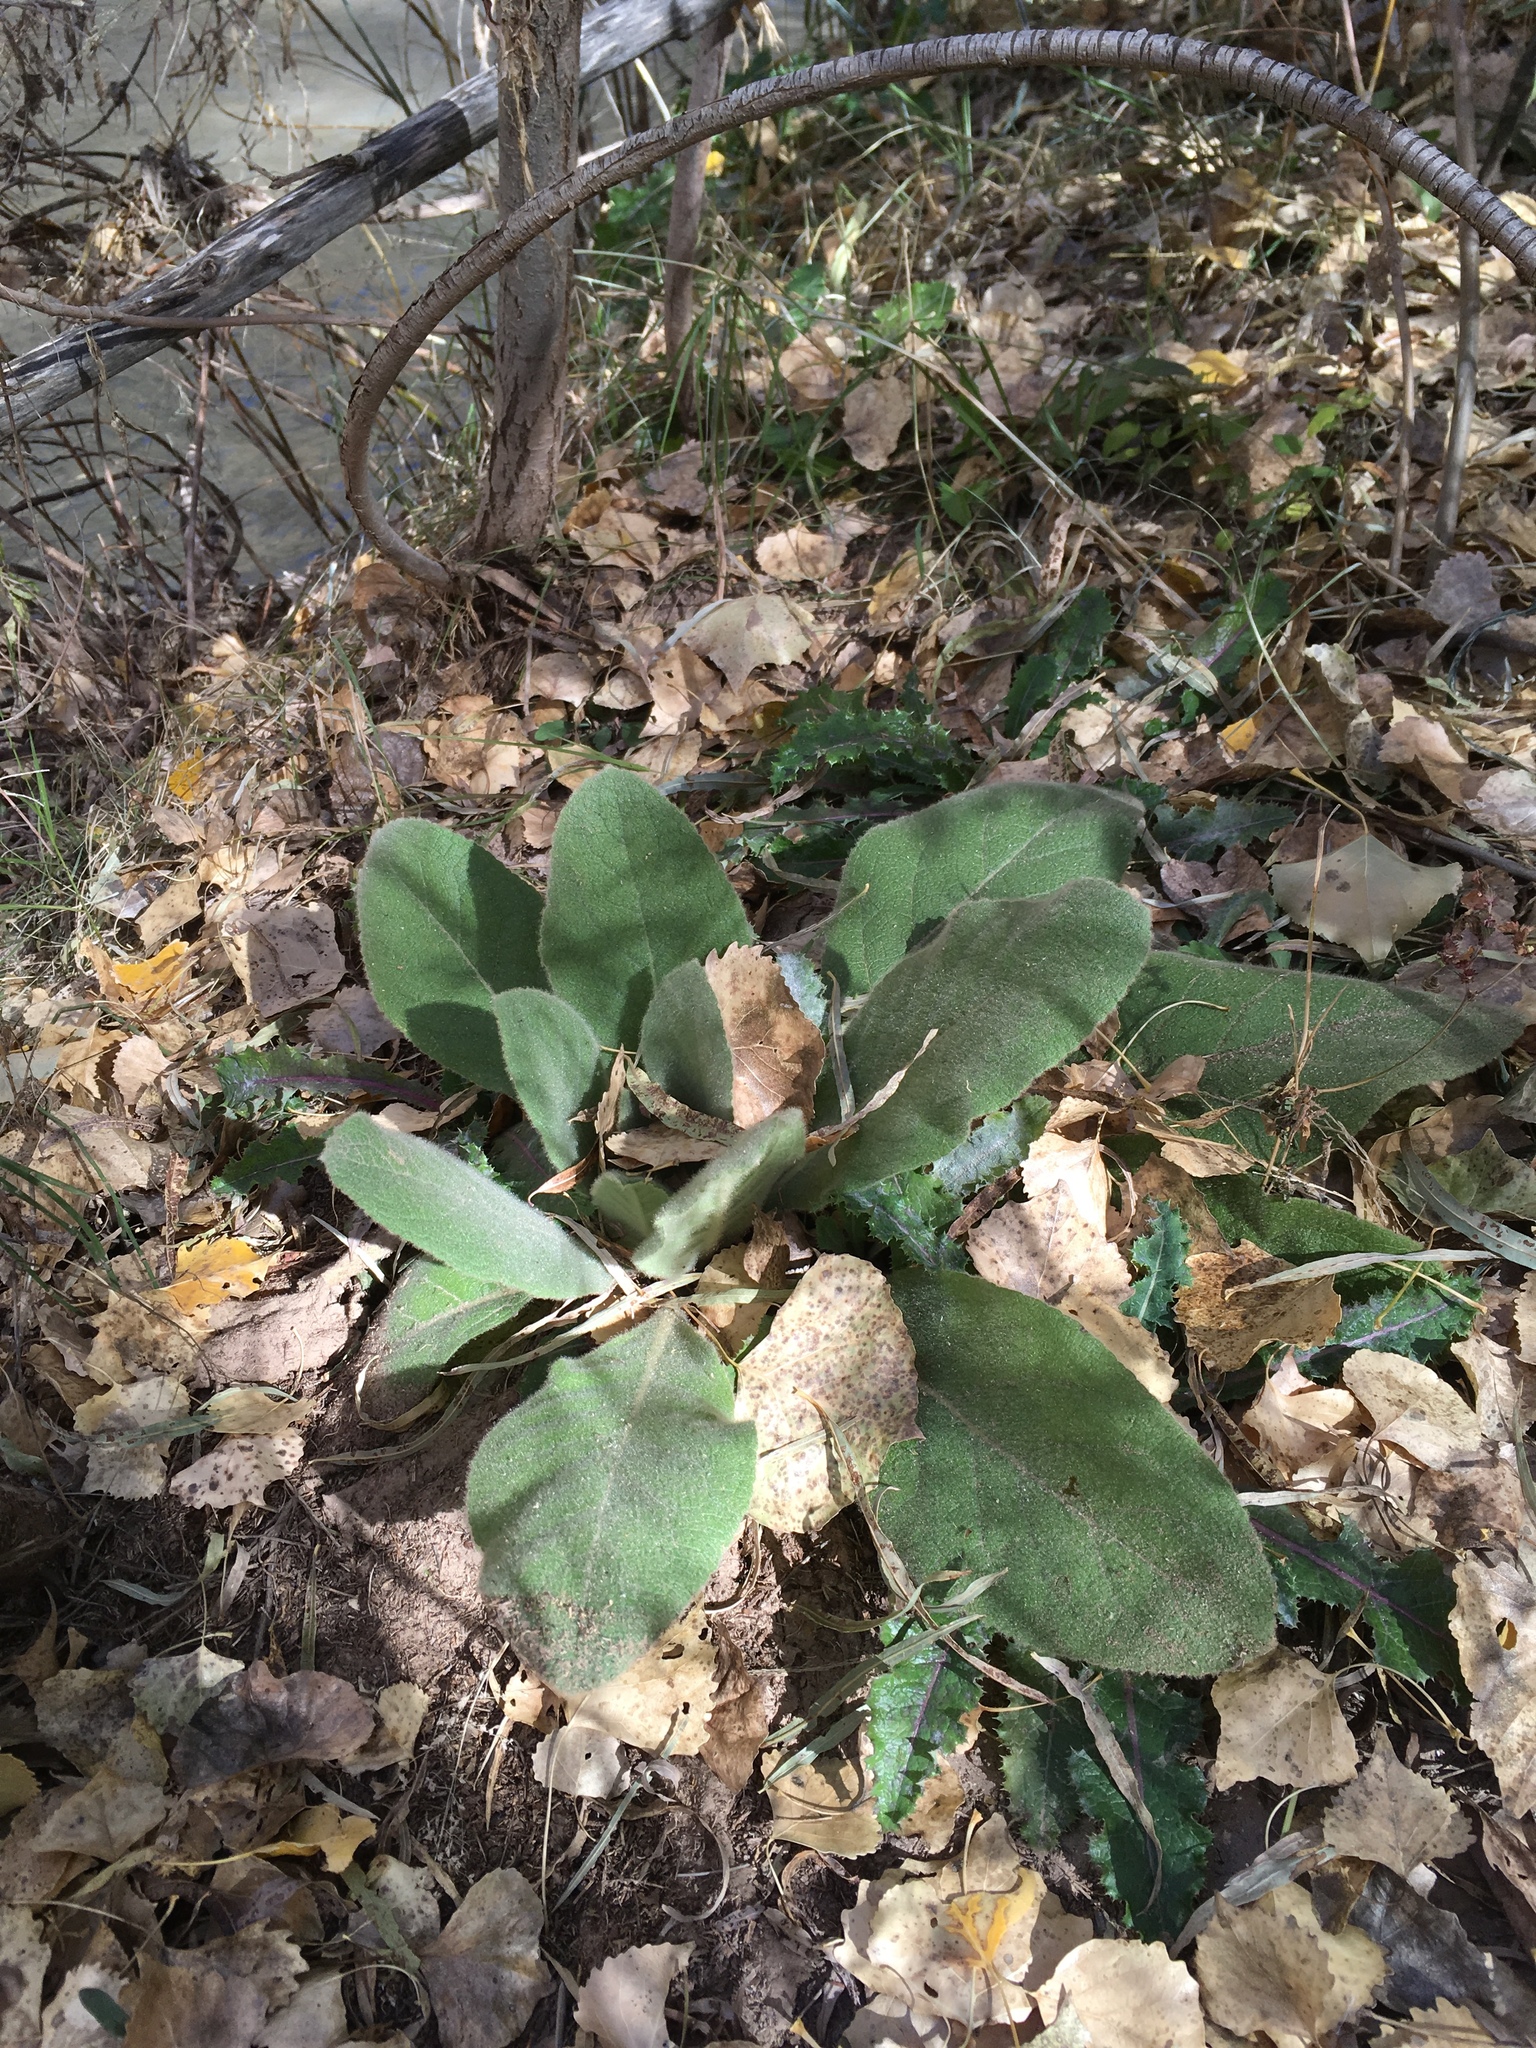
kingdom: Plantae
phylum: Tracheophyta
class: Magnoliopsida
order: Lamiales
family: Scrophulariaceae
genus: Verbascum
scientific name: Verbascum thapsus
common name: Common mullein
